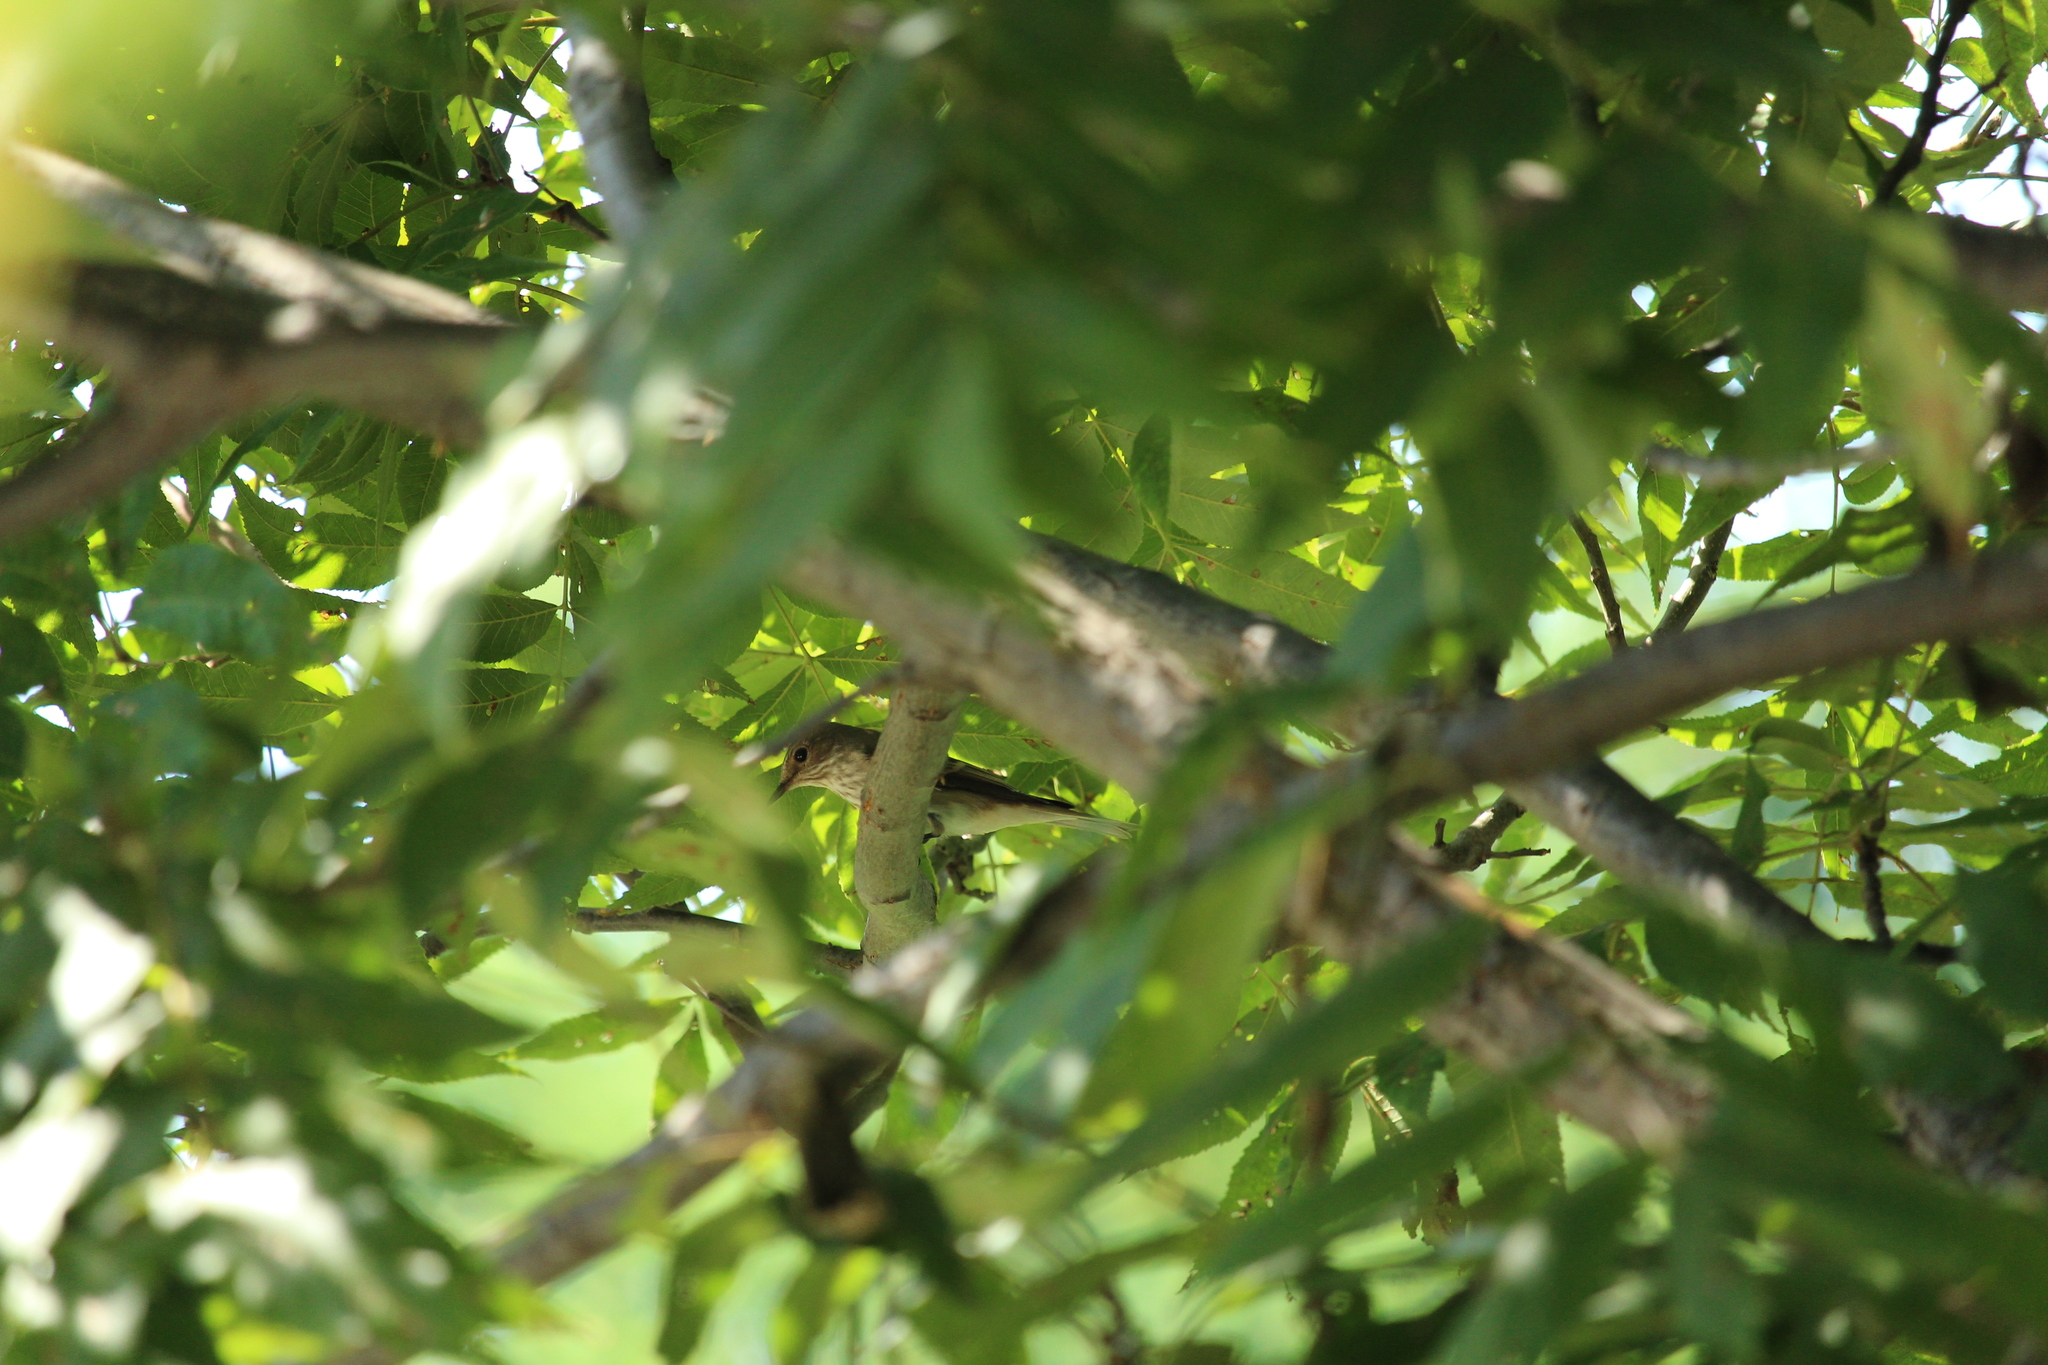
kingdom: Animalia
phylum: Chordata
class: Aves
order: Passeriformes
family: Muscicapidae
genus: Muscicapa
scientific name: Muscicapa striata
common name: Spotted flycatcher
